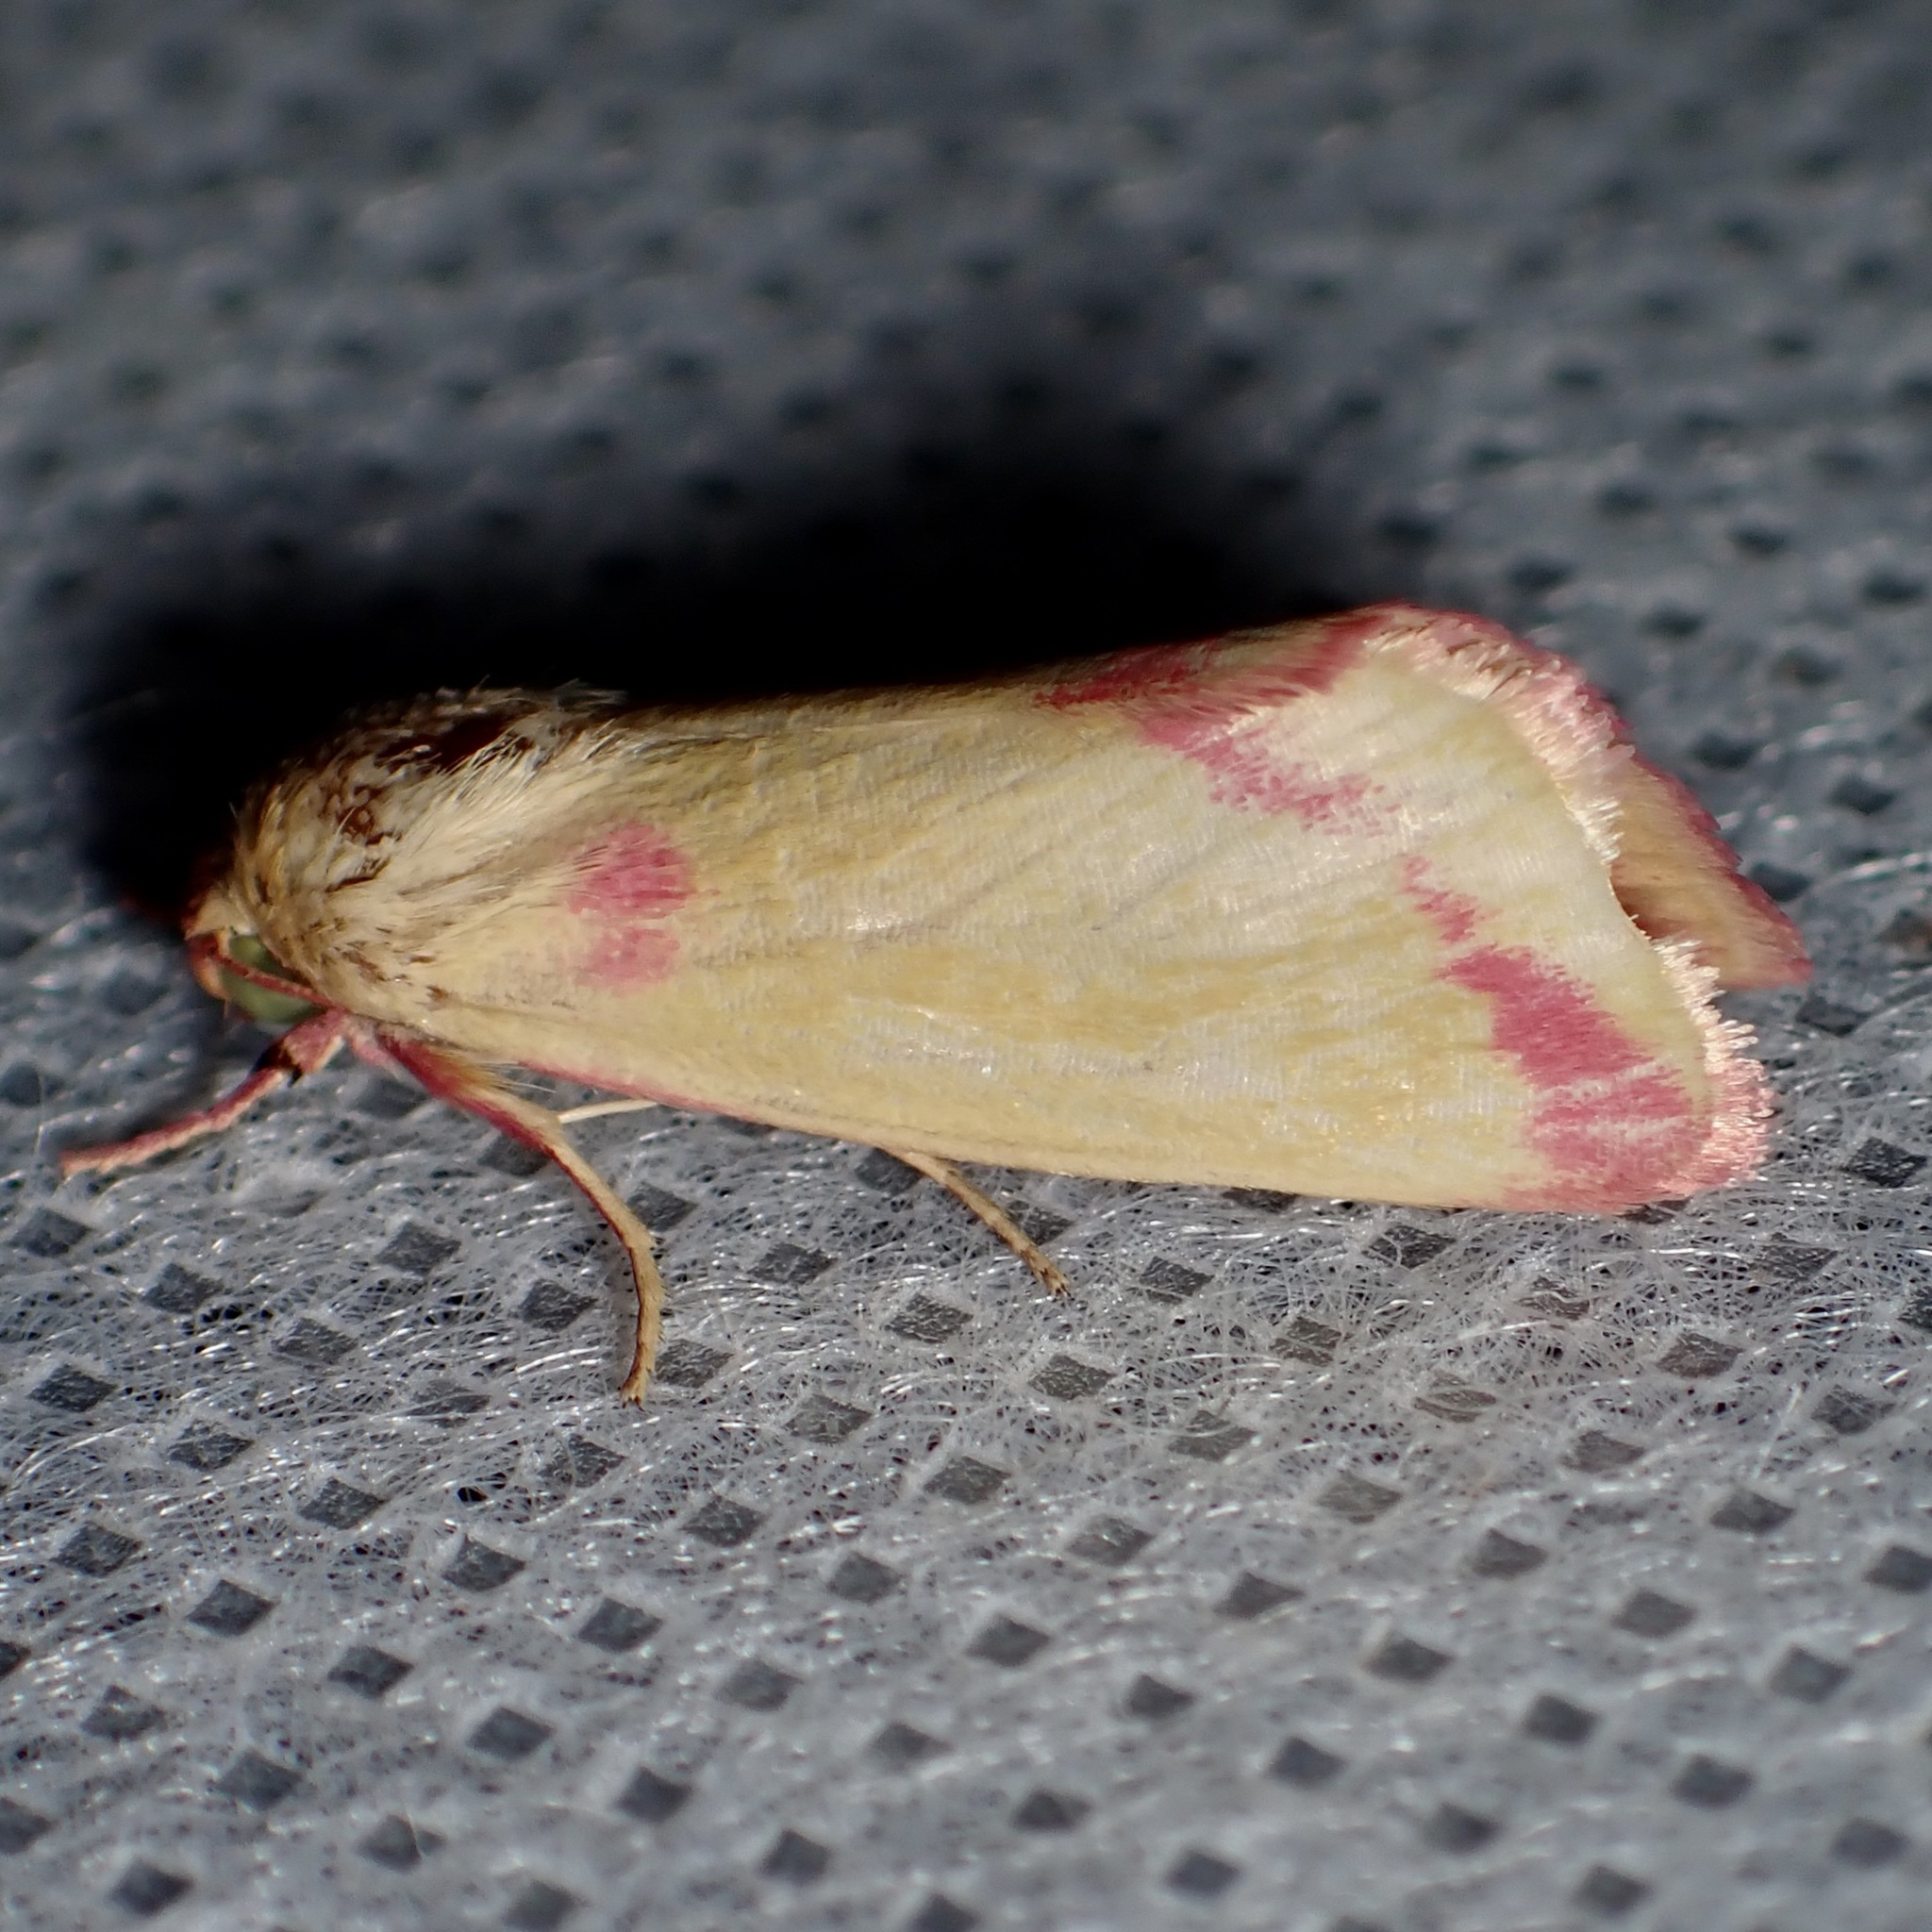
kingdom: Animalia
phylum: Arthropoda
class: Insecta
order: Lepidoptera
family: Noctuidae
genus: Heliocheilus
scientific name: Heliocheilus toralis
